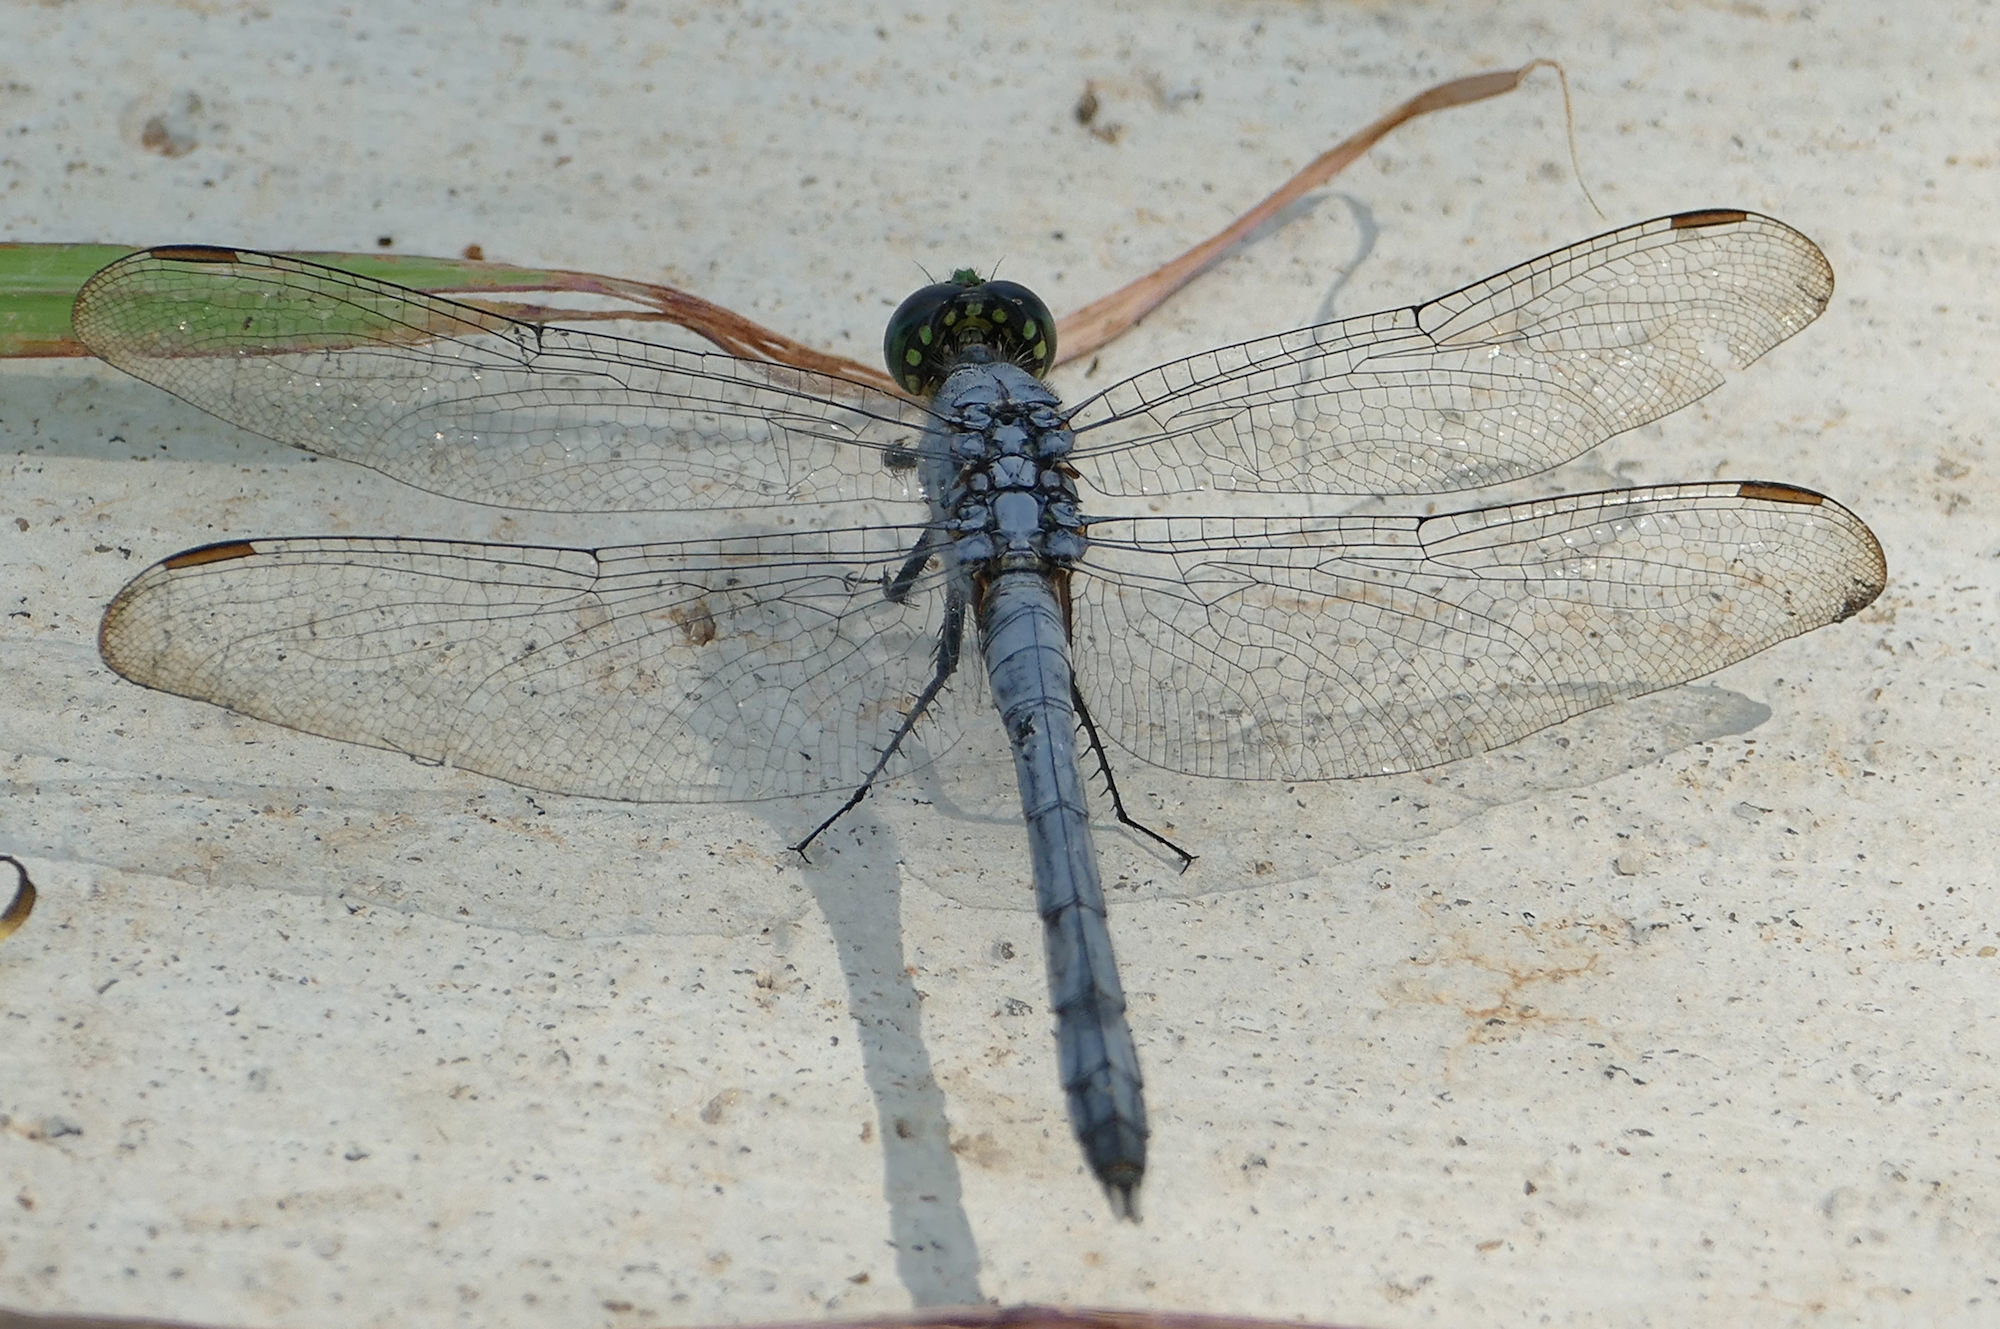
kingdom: Animalia
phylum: Arthropoda
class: Insecta
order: Odonata
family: Libellulidae
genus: Erythemis
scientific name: Erythemis simplicicollis
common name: Eastern pondhawk
